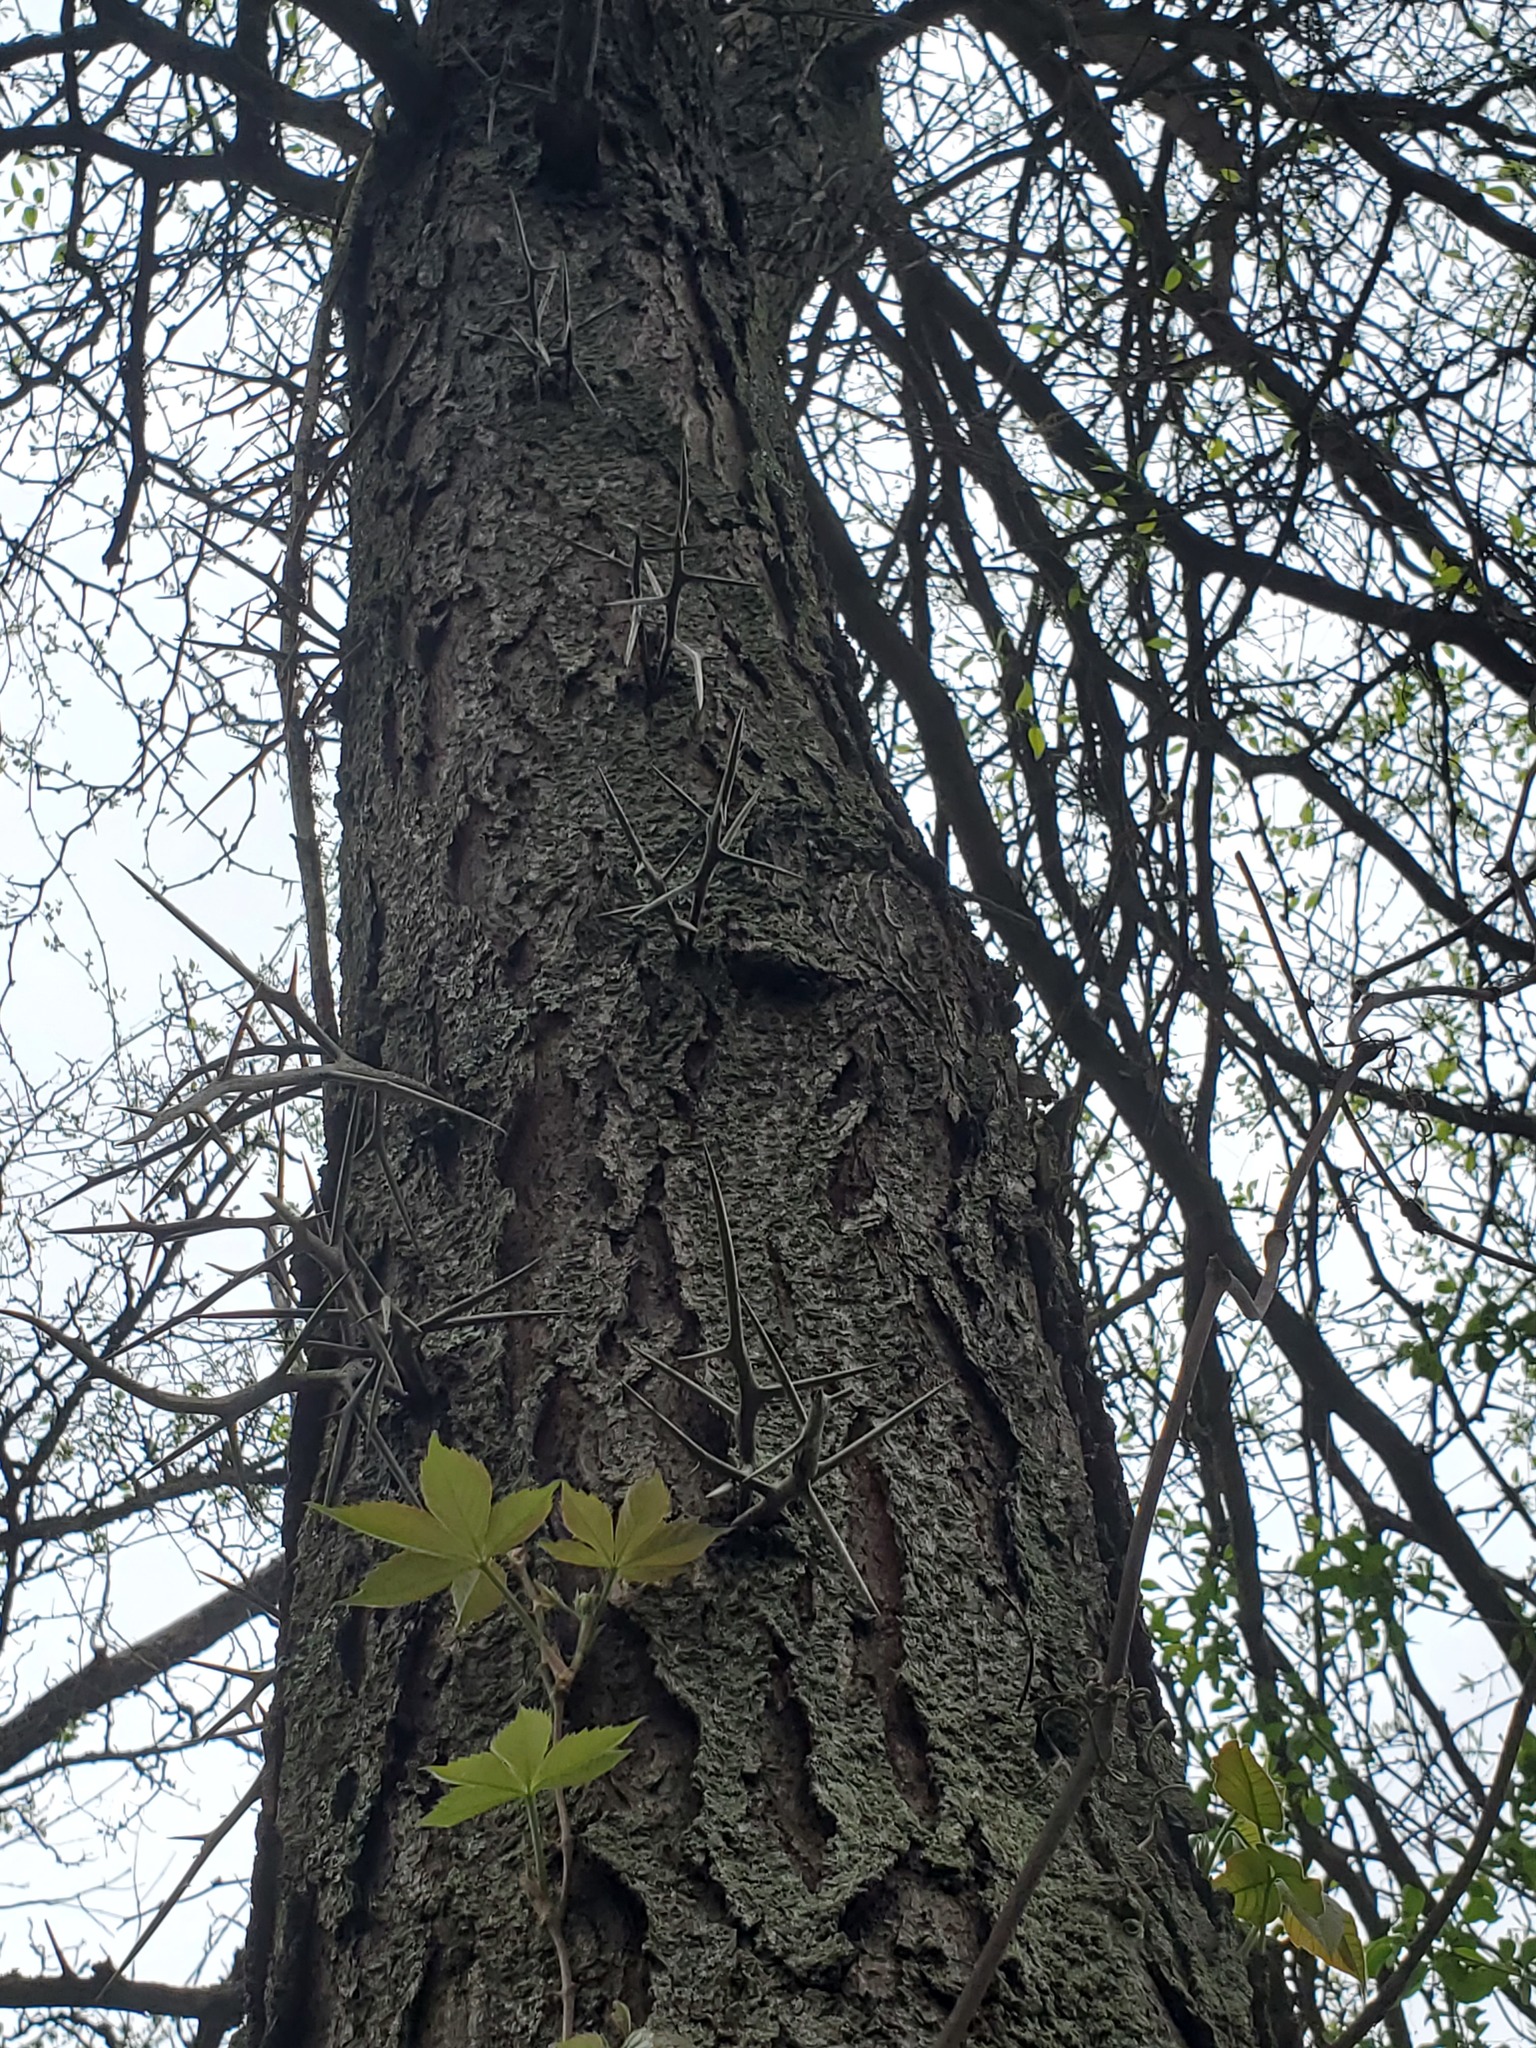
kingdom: Plantae
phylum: Tracheophyta
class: Magnoliopsida
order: Fabales
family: Fabaceae
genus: Gleditsia
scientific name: Gleditsia triacanthos
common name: Common honeylocust
